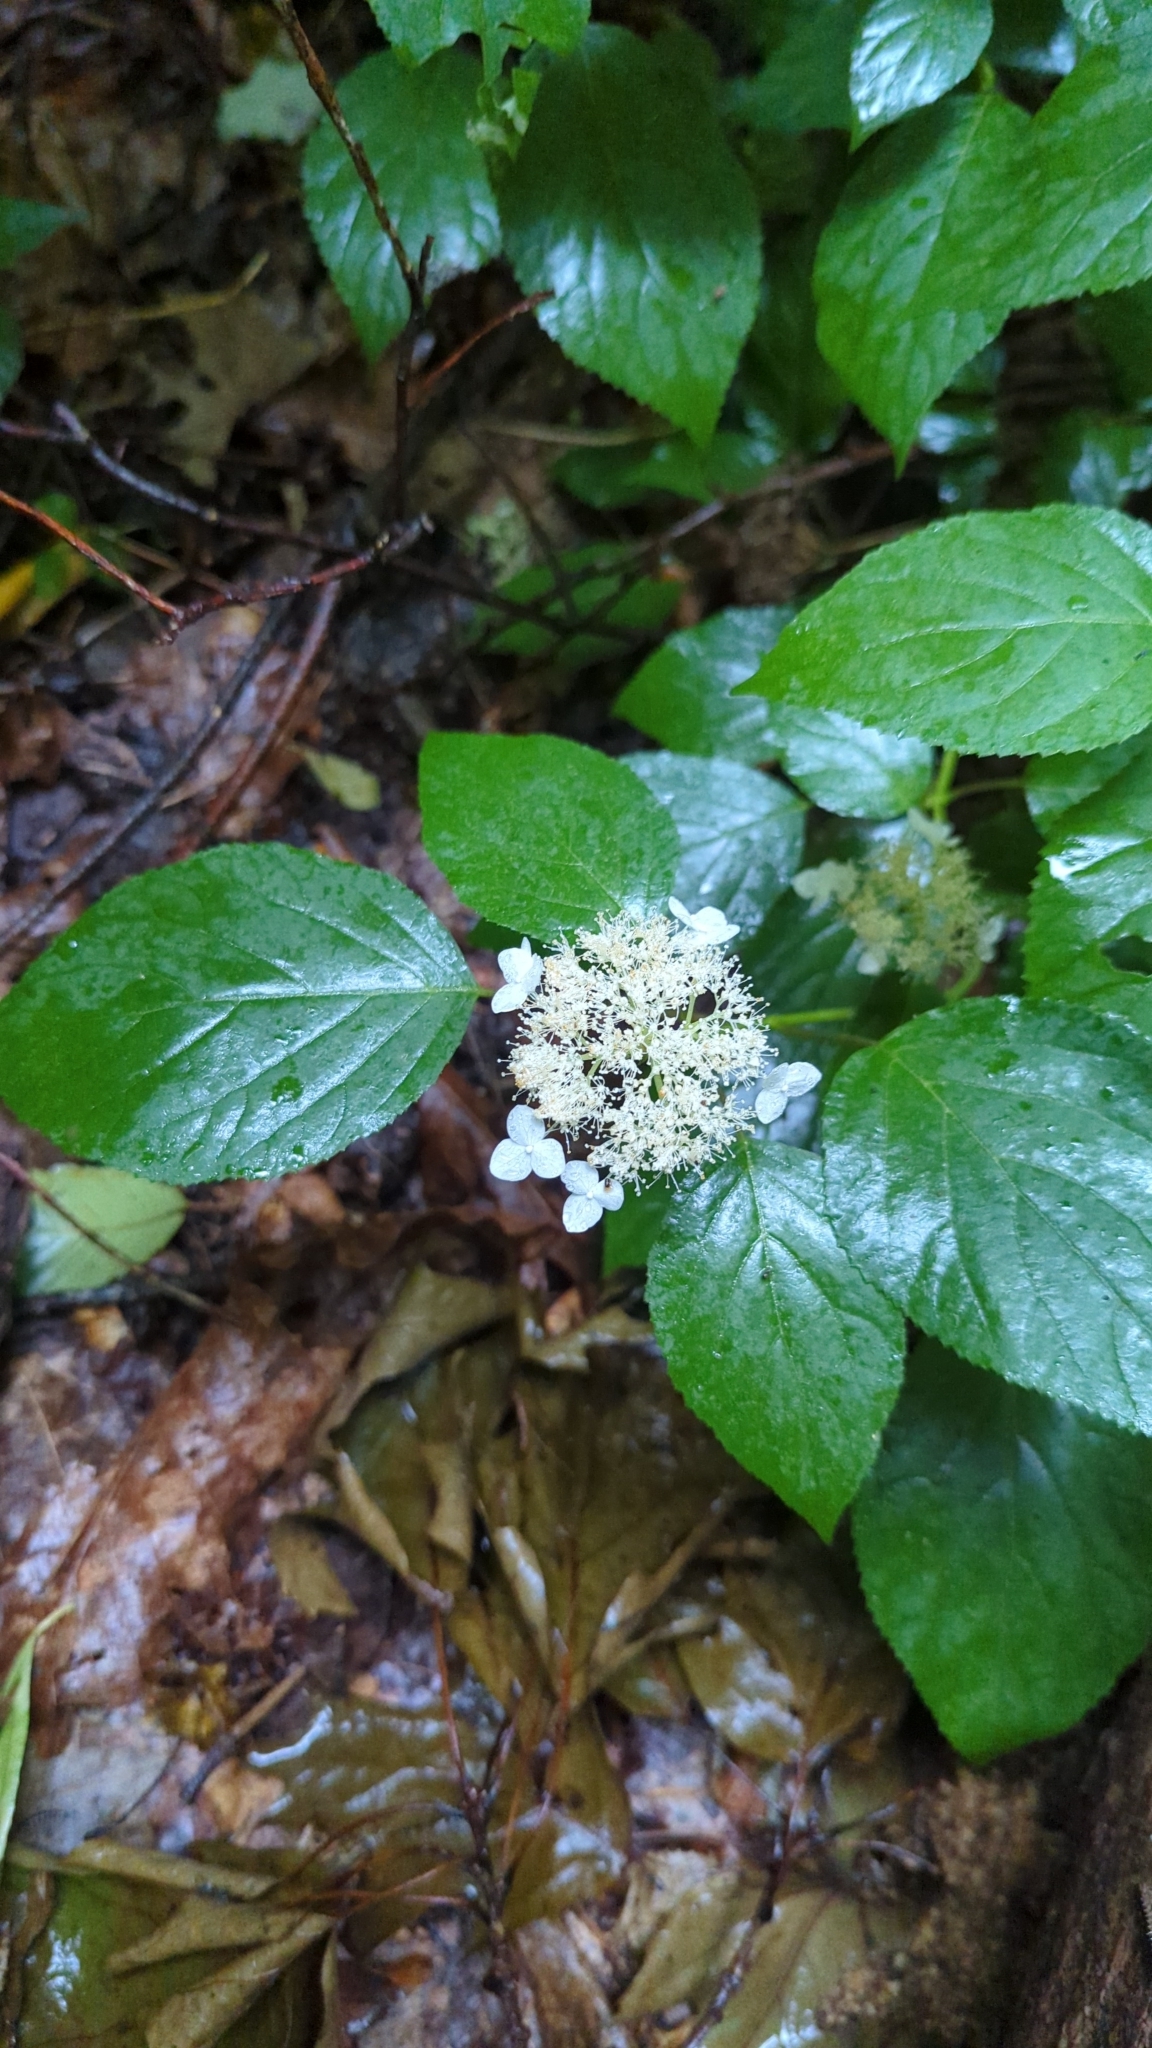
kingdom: Plantae
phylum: Tracheophyta
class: Magnoliopsida
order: Cornales
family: Hydrangeaceae
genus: Hydrangea
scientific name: Hydrangea arborescens
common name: Sevenbark
